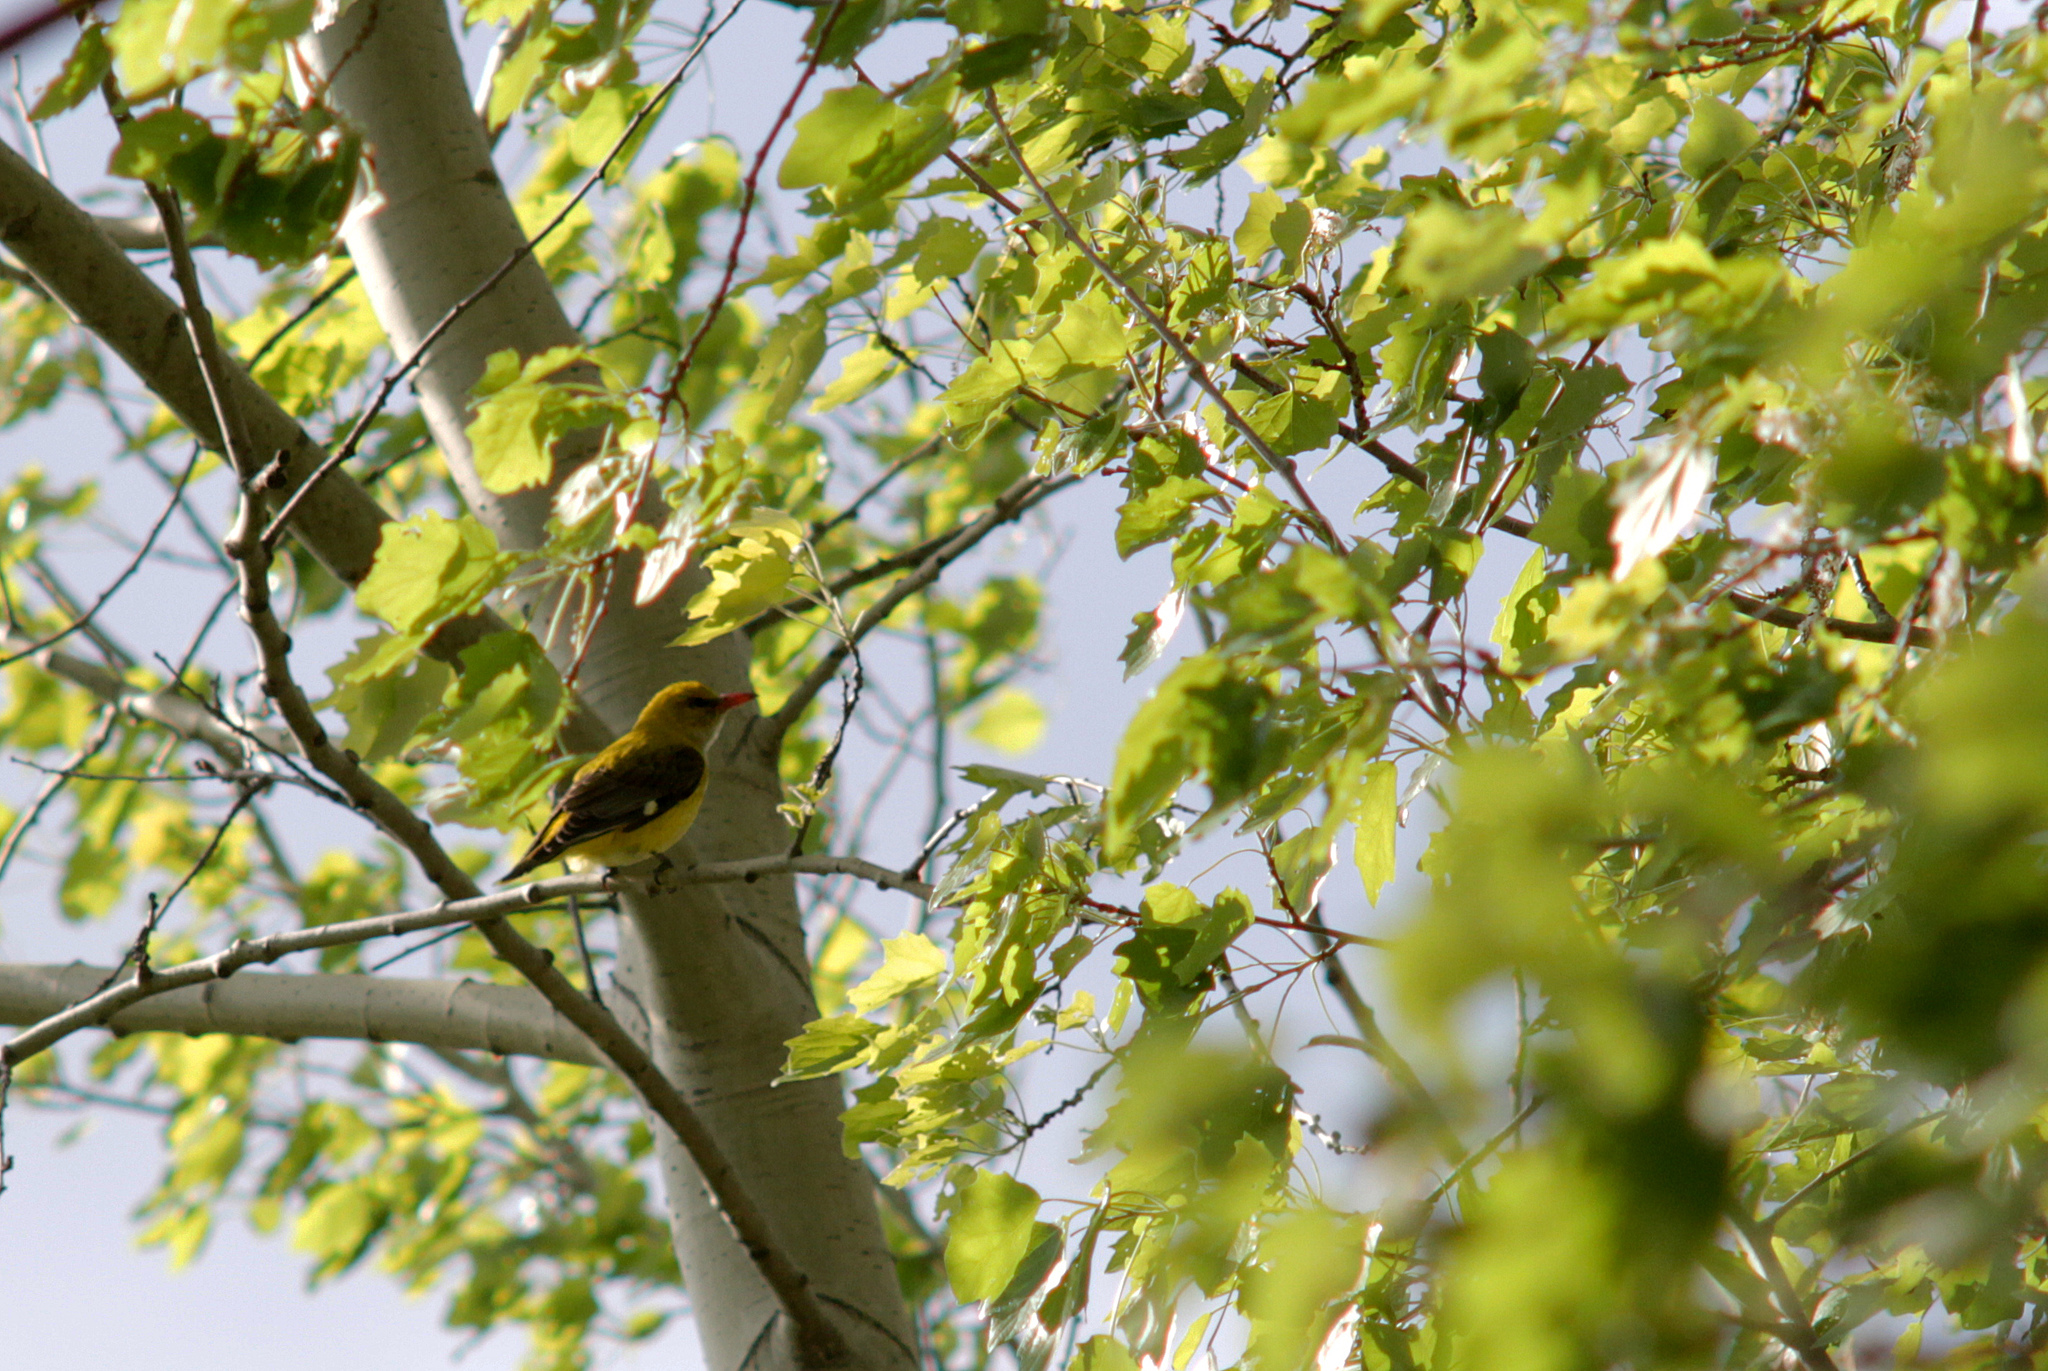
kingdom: Animalia
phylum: Chordata
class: Aves
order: Passeriformes
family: Oriolidae
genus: Oriolus
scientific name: Oriolus oriolus
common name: Eurasian golden oriole
